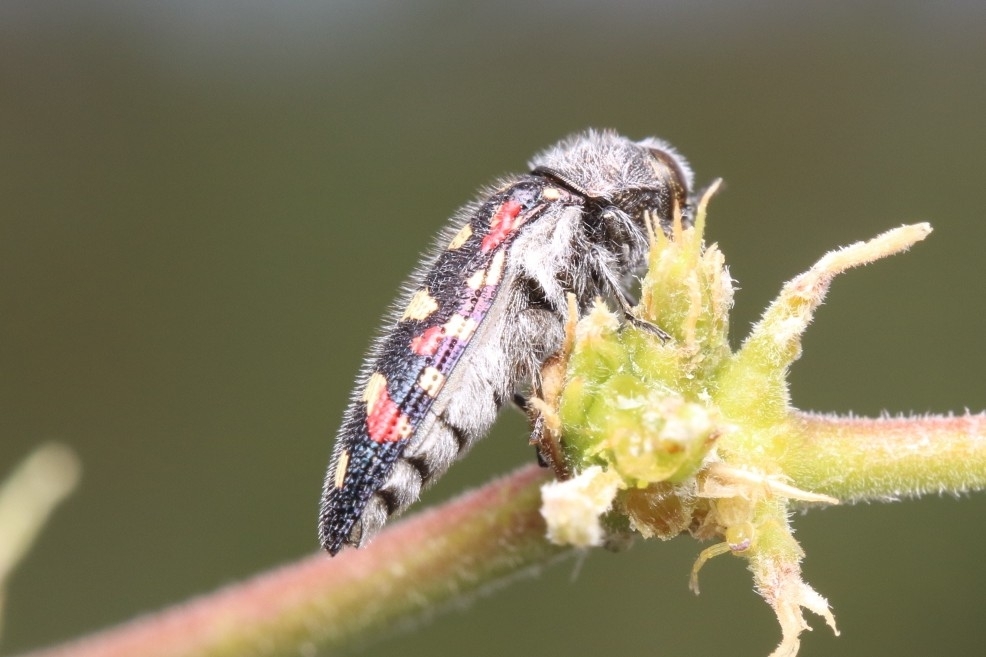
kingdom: Animalia
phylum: Arthropoda
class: Insecta
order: Coleoptera
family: Buprestidae
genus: Acmaeodera
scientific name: Acmaeodera gibbula
